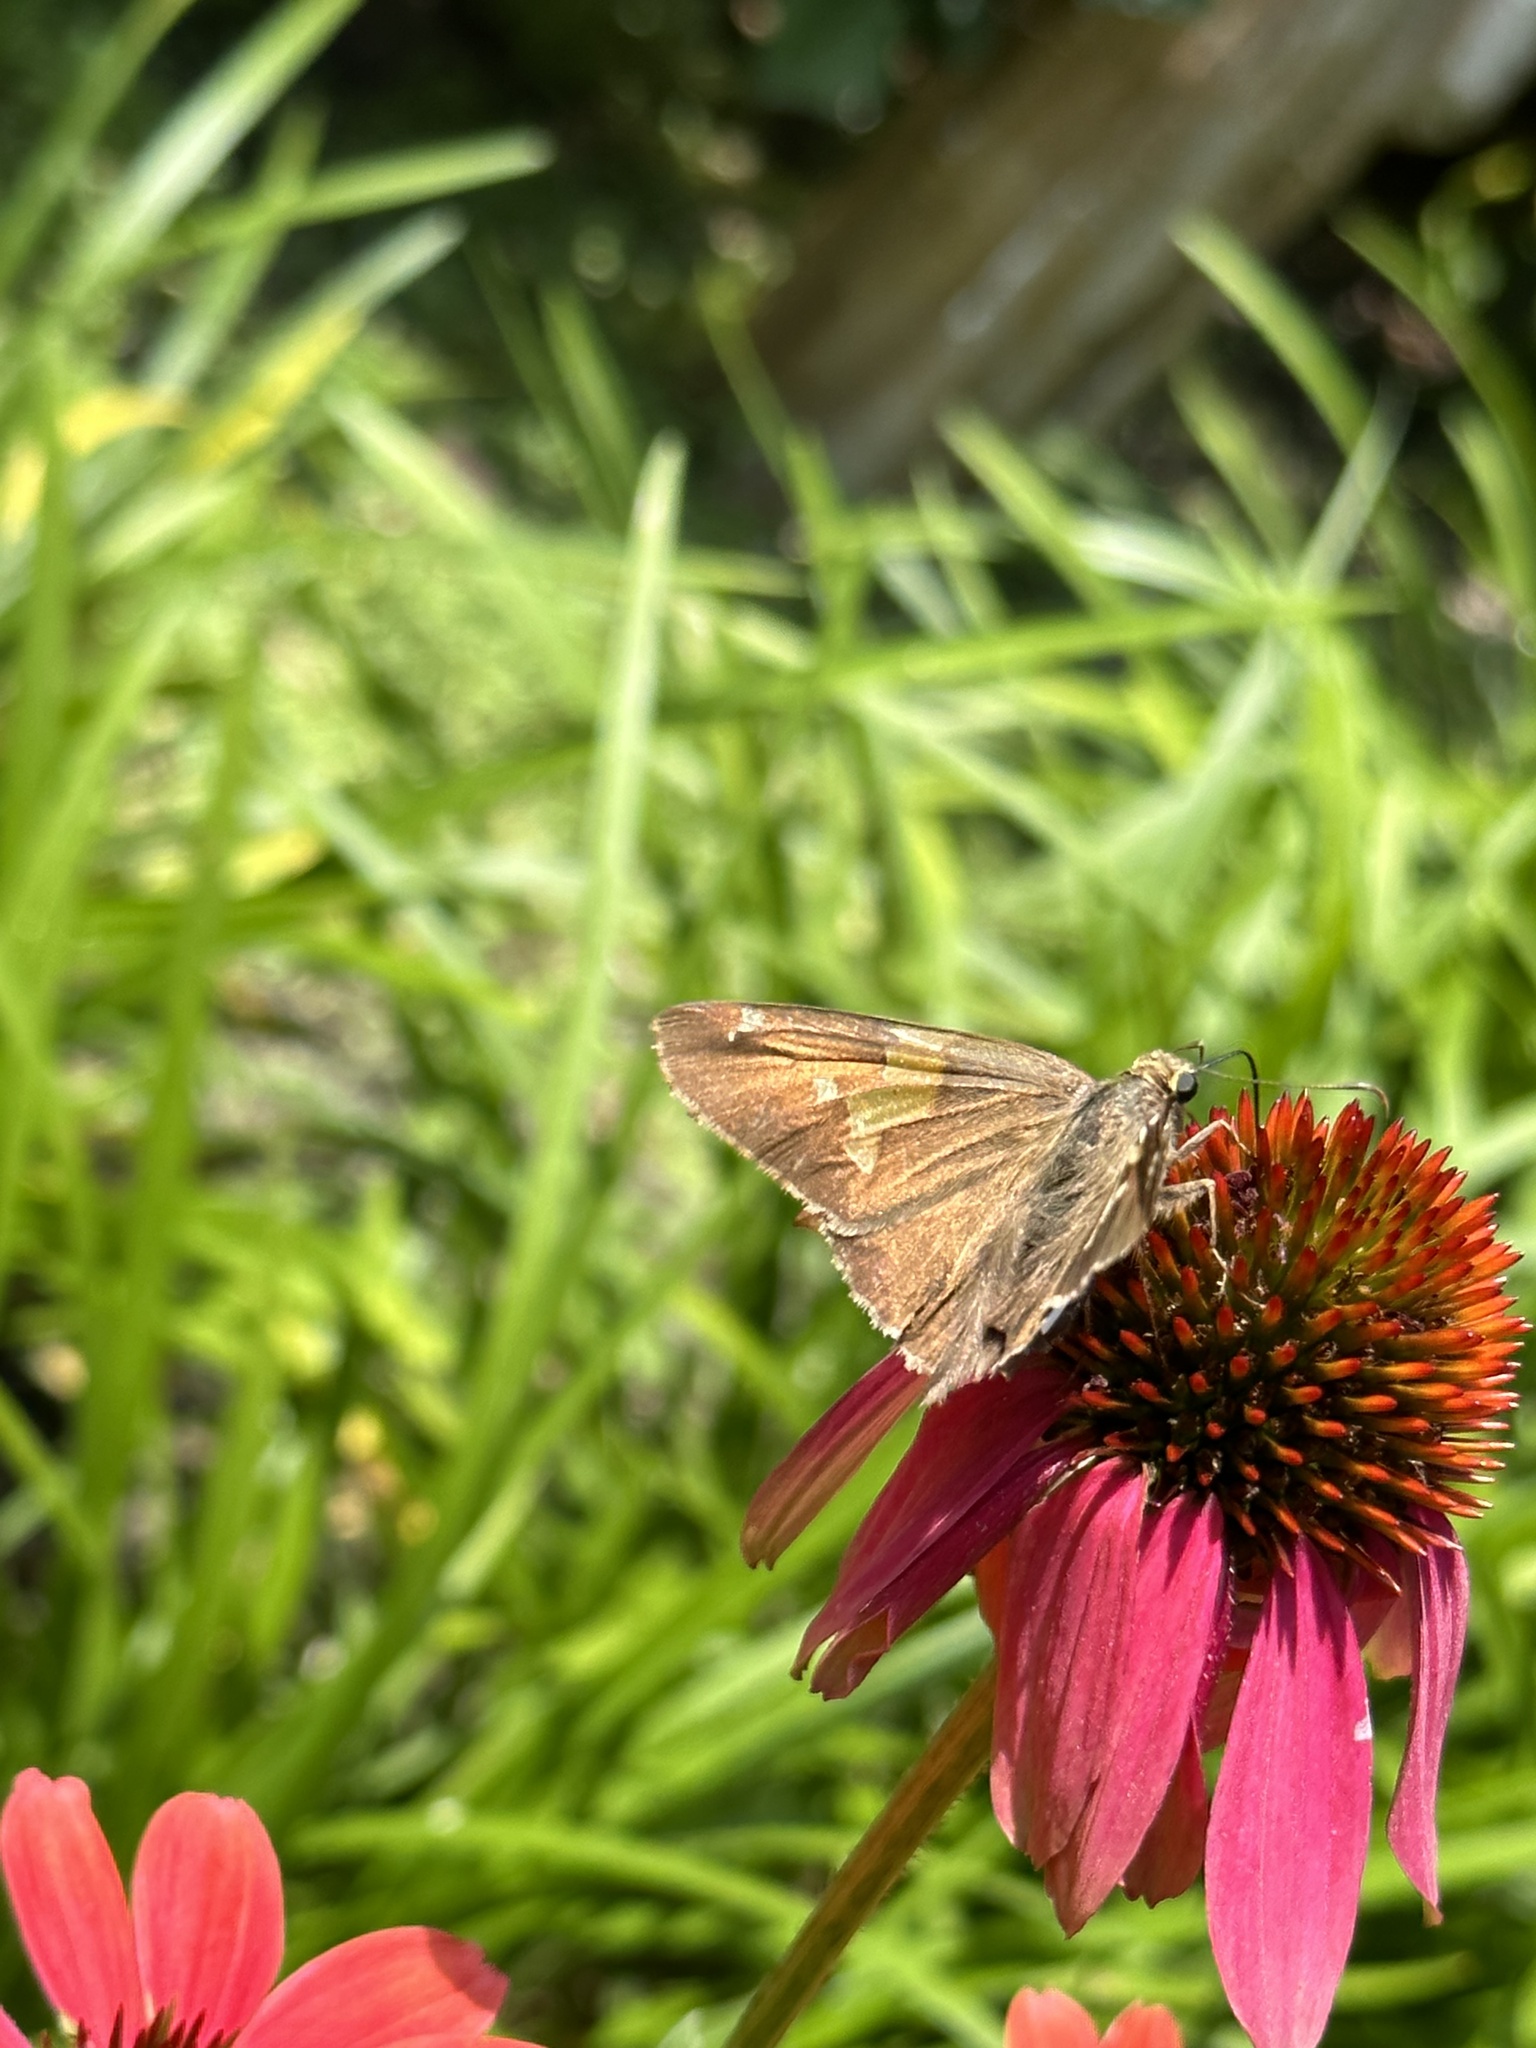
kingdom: Animalia
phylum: Arthropoda
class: Insecta
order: Lepidoptera
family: Hesperiidae
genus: Epargyreus
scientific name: Epargyreus clarus
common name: Silver-spotted skipper
